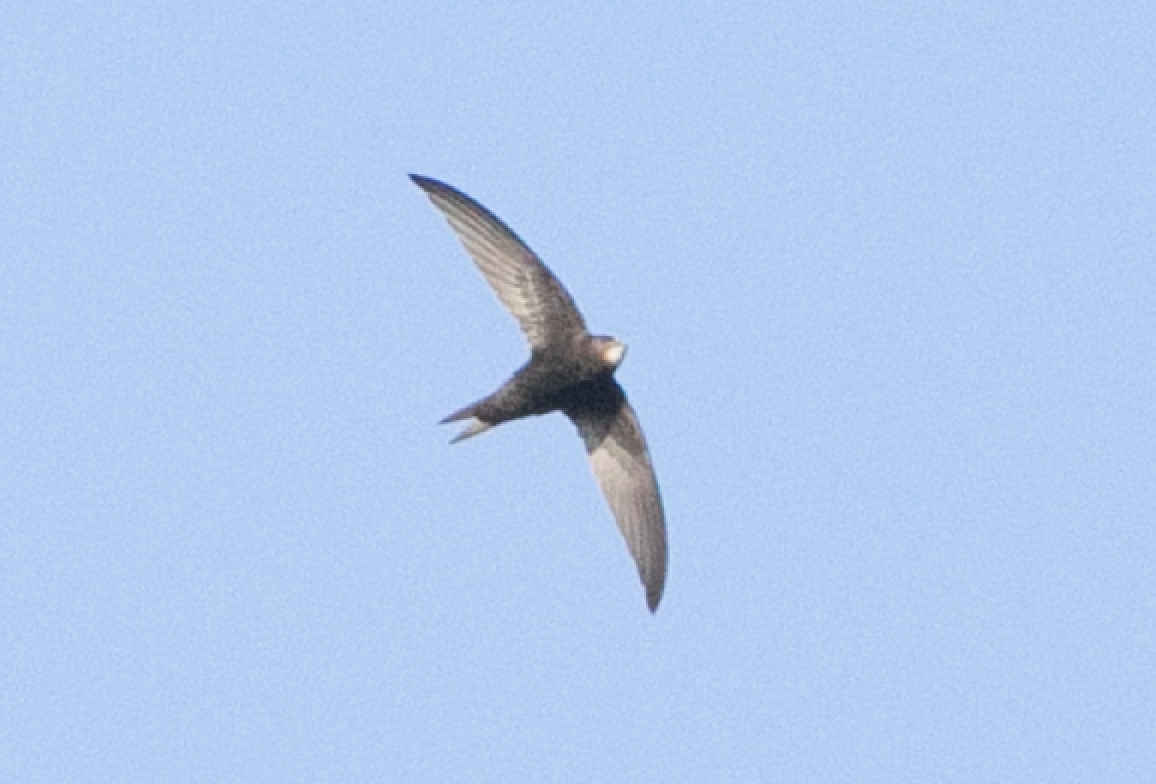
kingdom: Animalia
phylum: Chordata
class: Aves
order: Apodiformes
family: Apodidae
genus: Apus
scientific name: Apus apus
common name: Common swift
